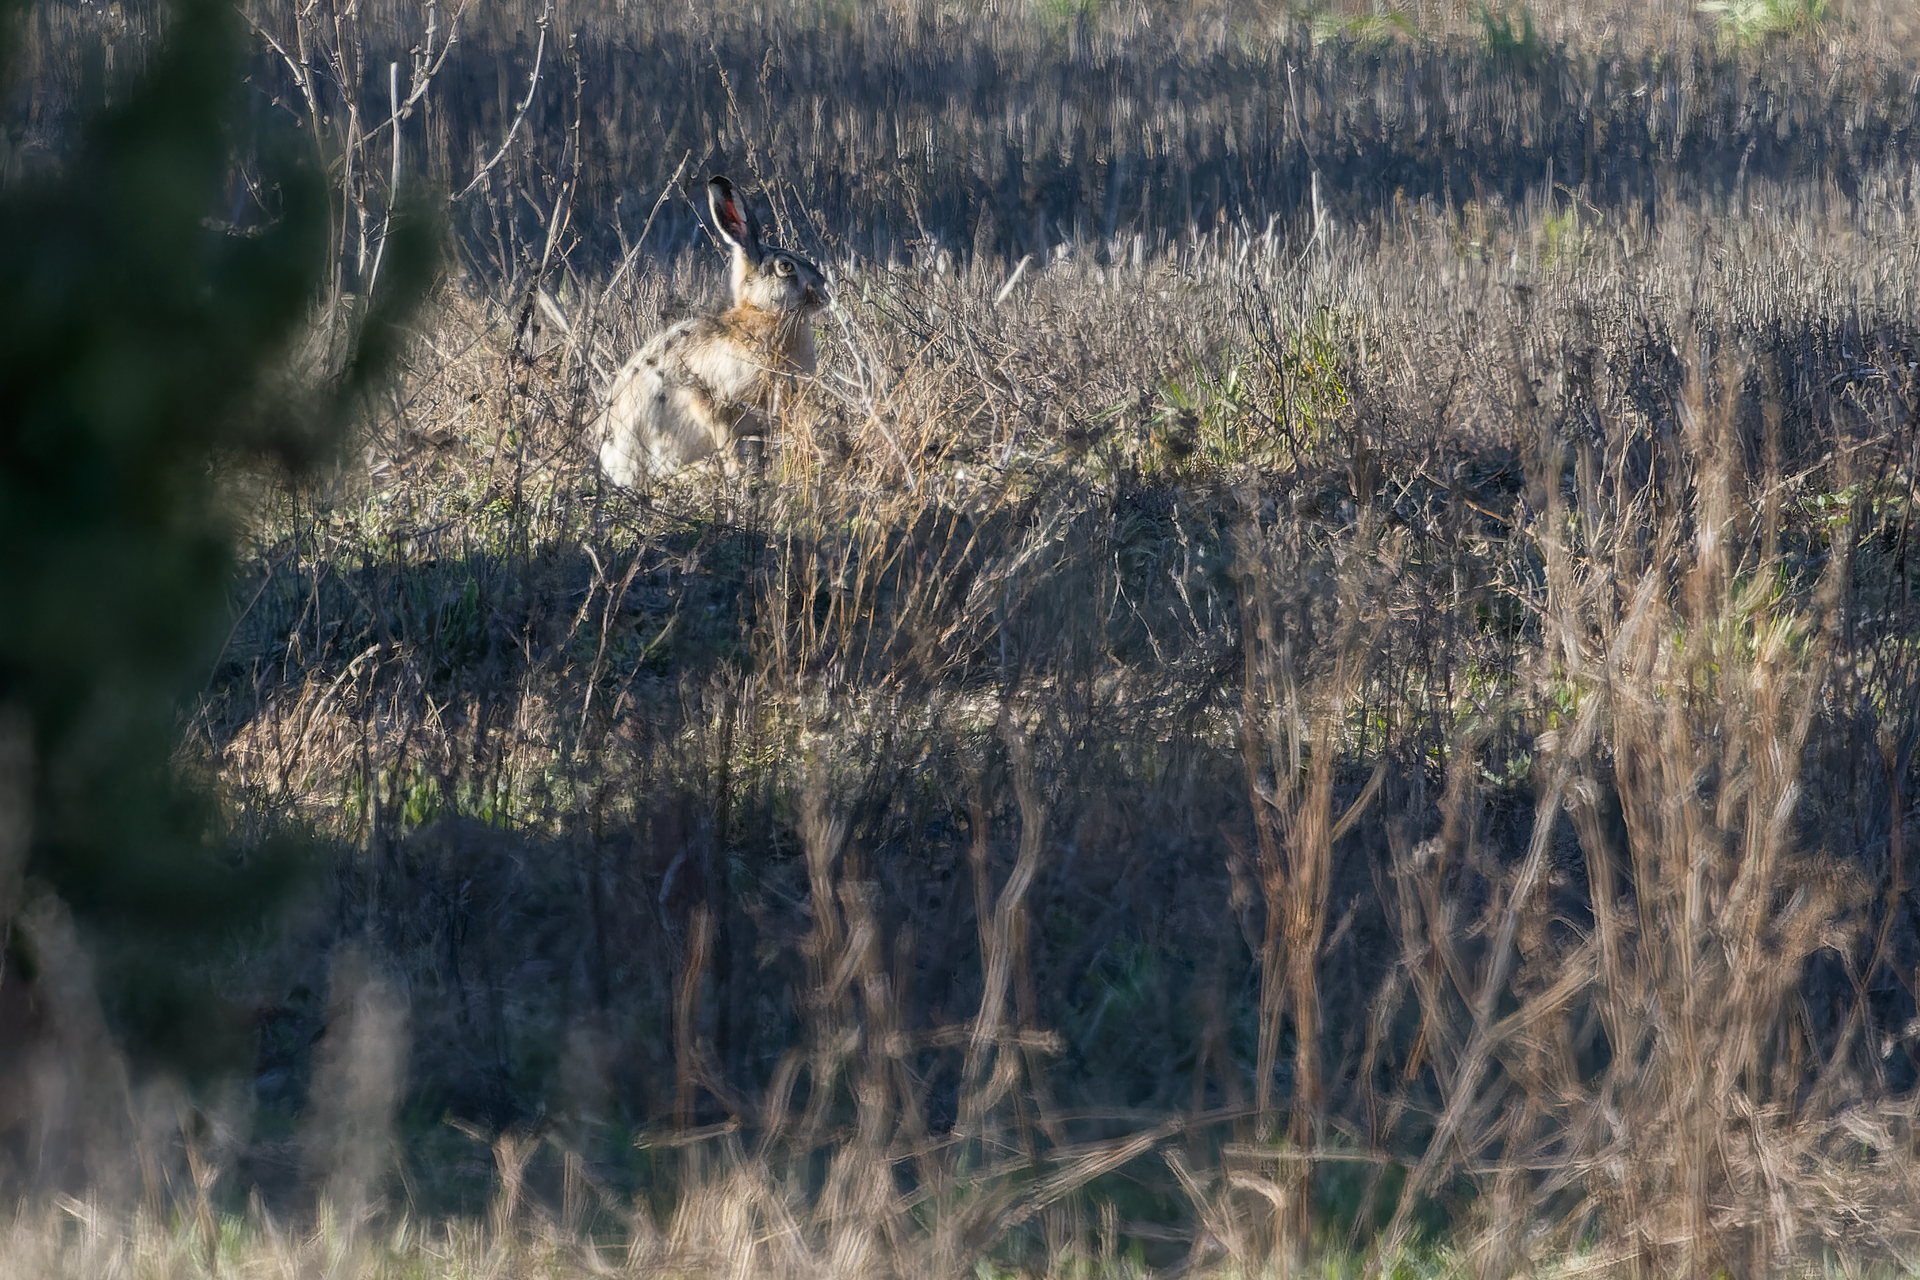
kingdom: Animalia
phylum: Chordata
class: Mammalia
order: Lagomorpha
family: Leporidae
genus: Lepus
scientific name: Lepus europaeus
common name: European hare
